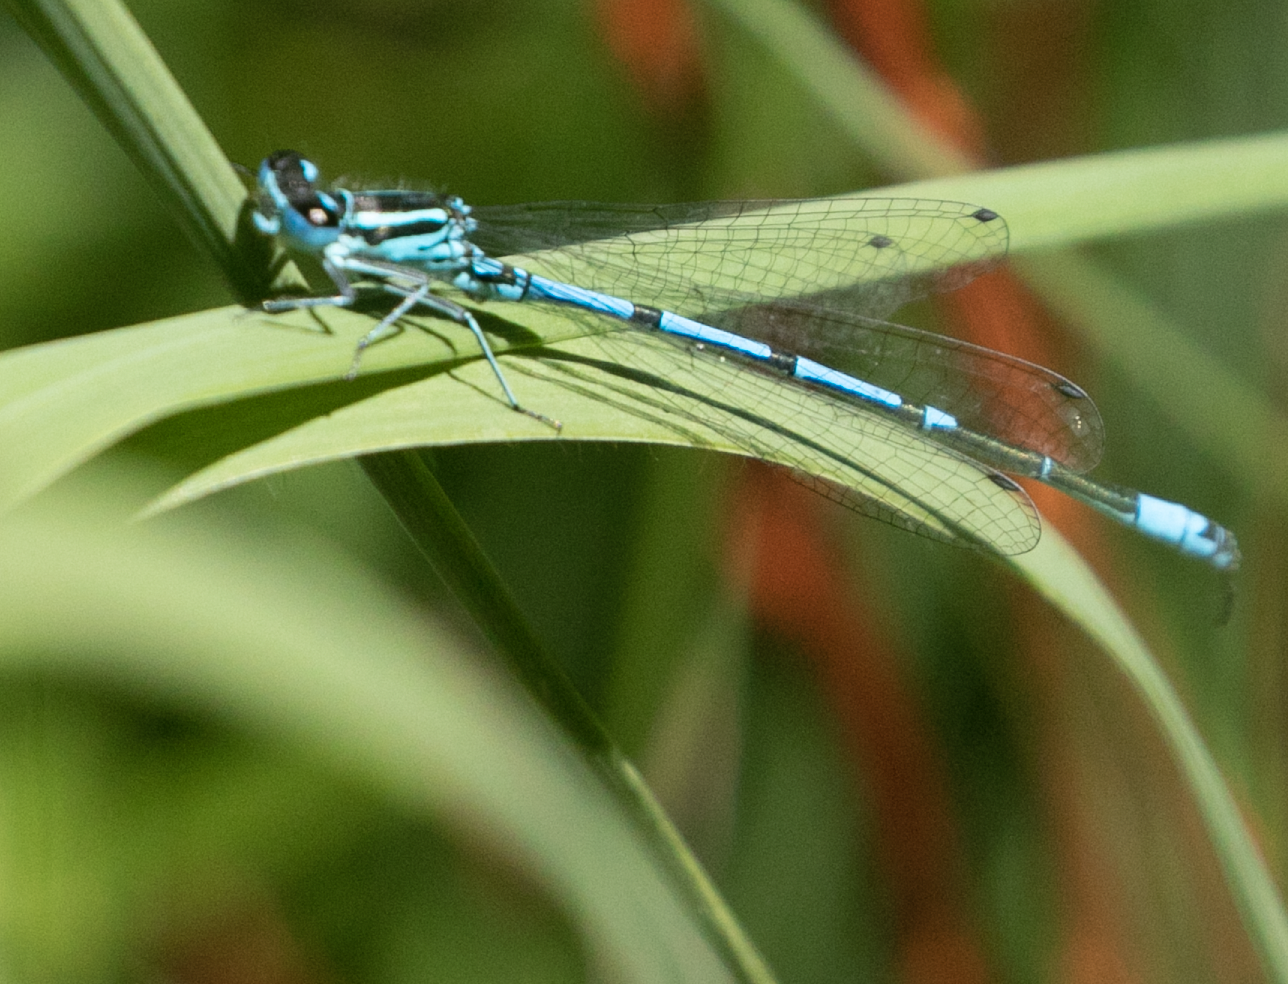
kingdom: Animalia
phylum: Arthropoda
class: Insecta
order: Odonata
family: Coenagrionidae
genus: Coenagrion
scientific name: Coenagrion puella
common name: Azure damselfly
